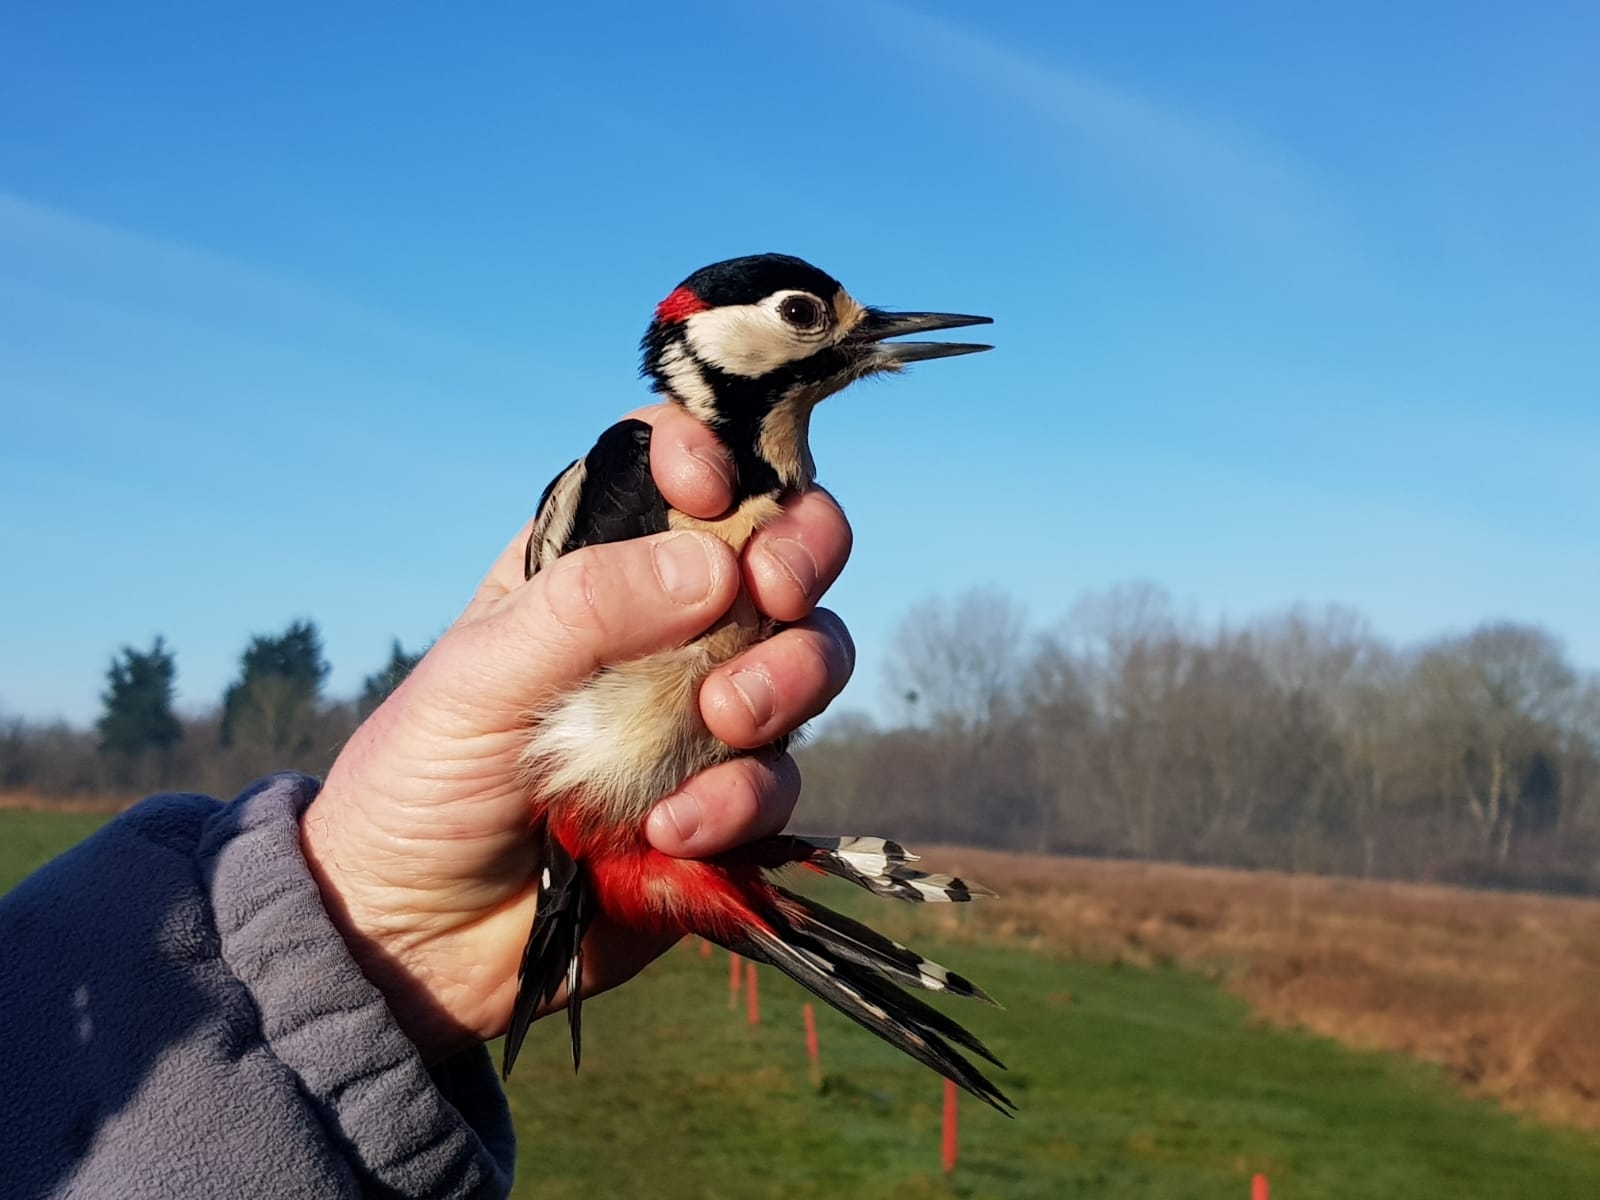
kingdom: Animalia
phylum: Chordata
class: Aves
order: Piciformes
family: Picidae
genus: Dendrocopos
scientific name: Dendrocopos major
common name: Great spotted woodpecker
